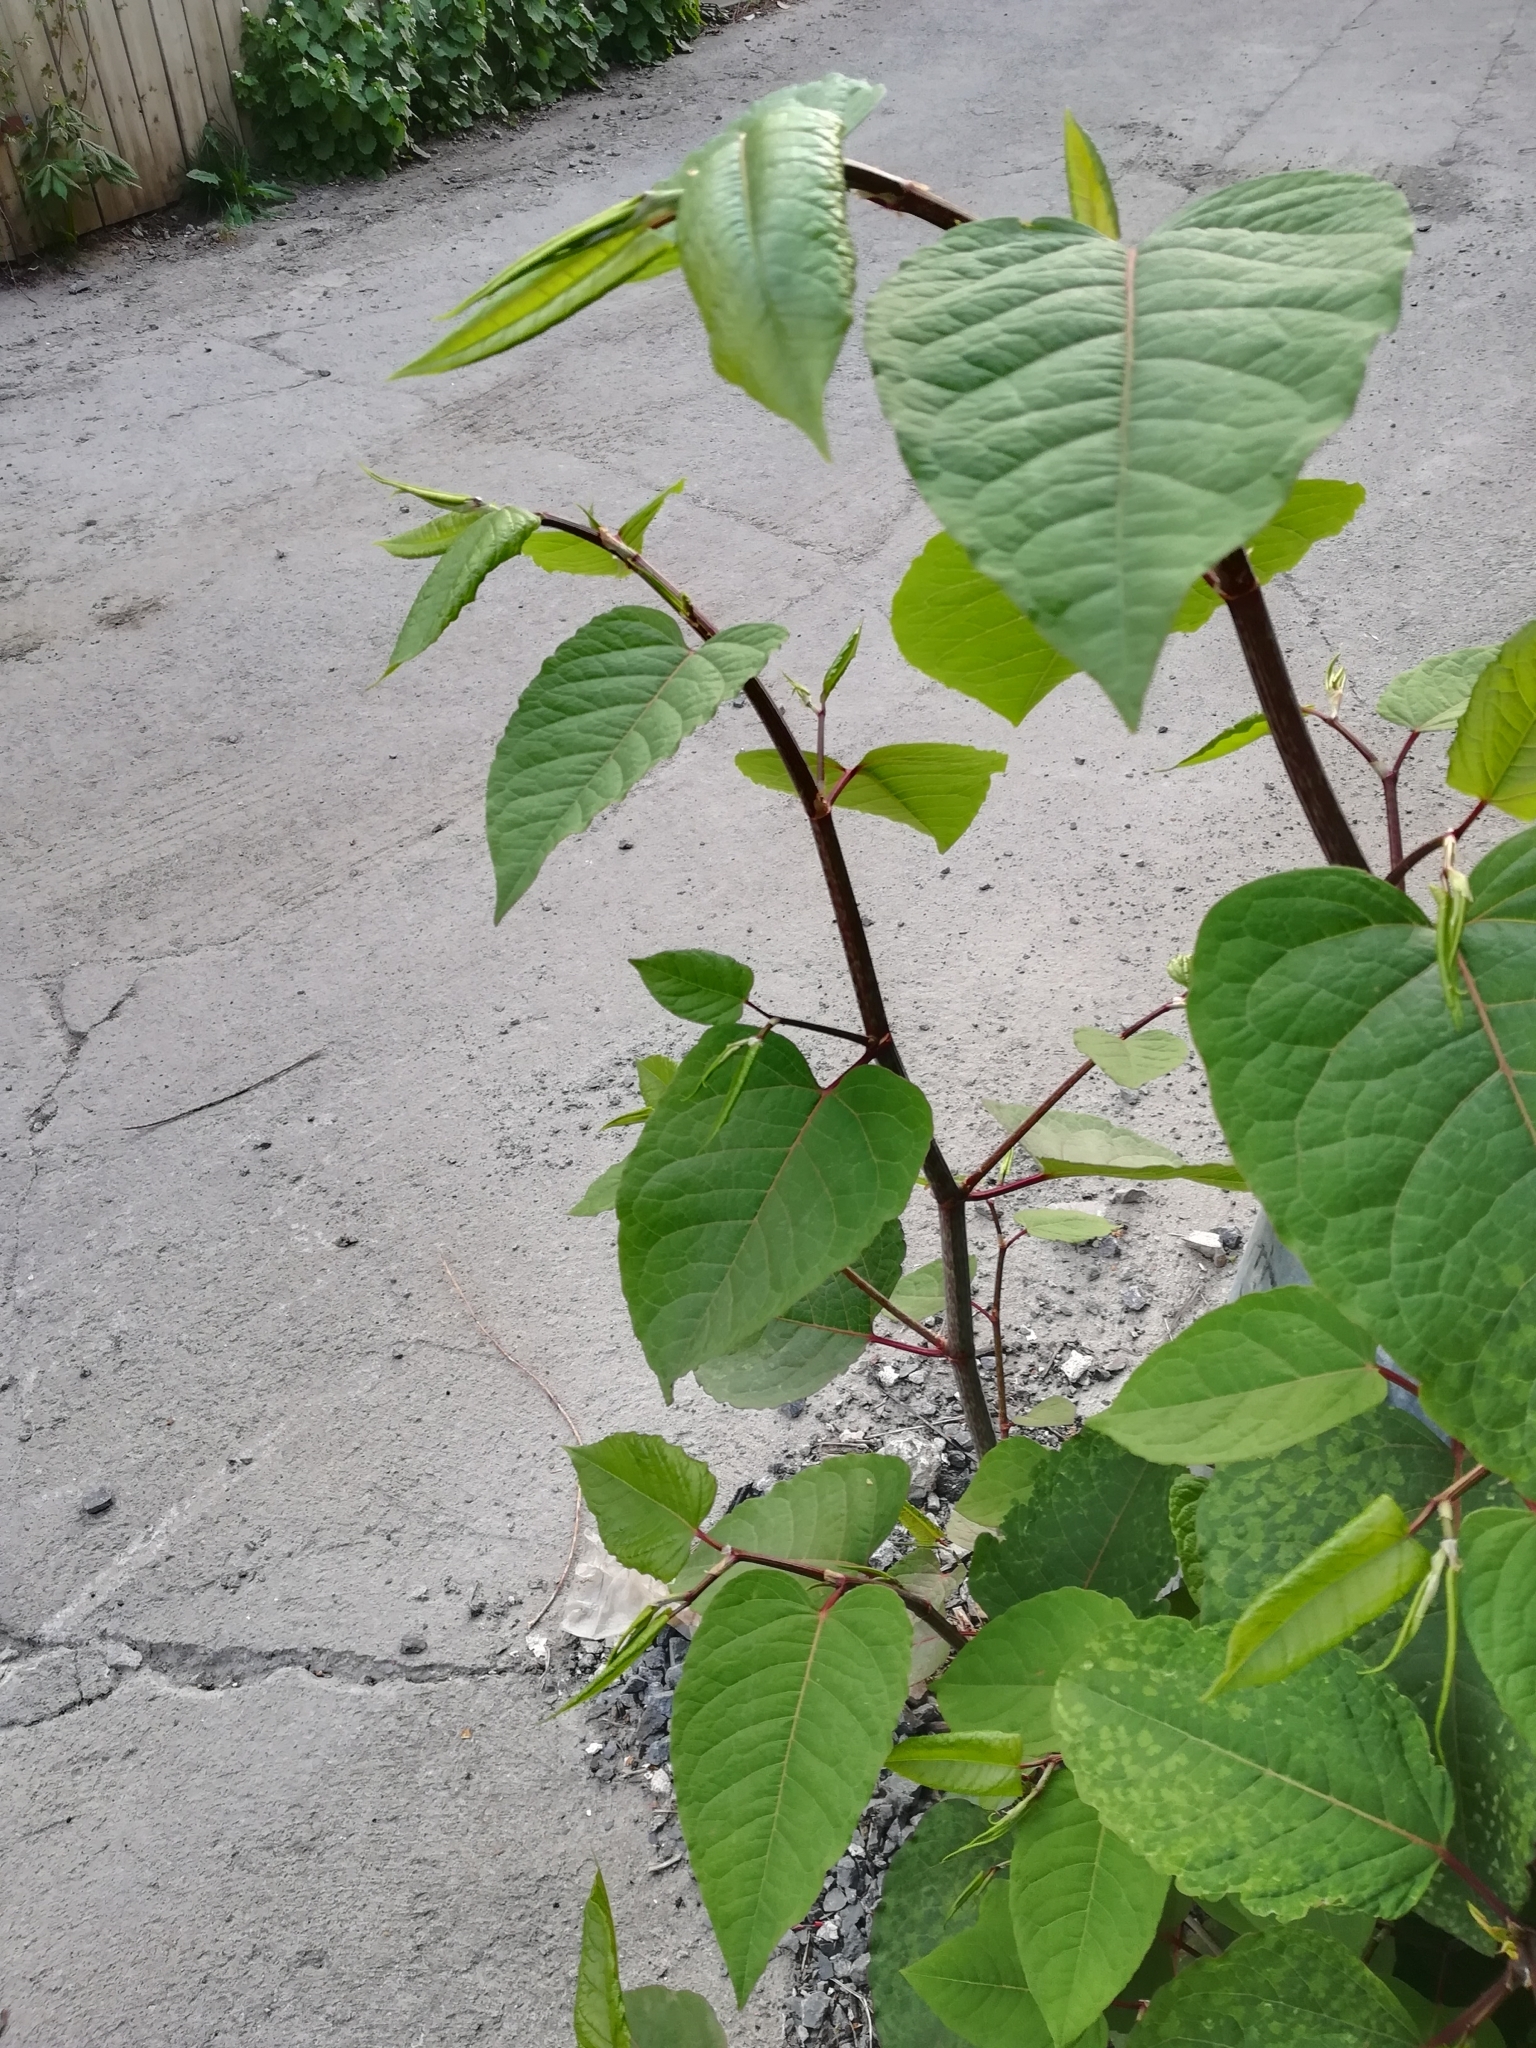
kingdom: Plantae
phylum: Tracheophyta
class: Magnoliopsida
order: Caryophyllales
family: Polygonaceae
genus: Reynoutria
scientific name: Reynoutria japonica
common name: Japanese knotweed
